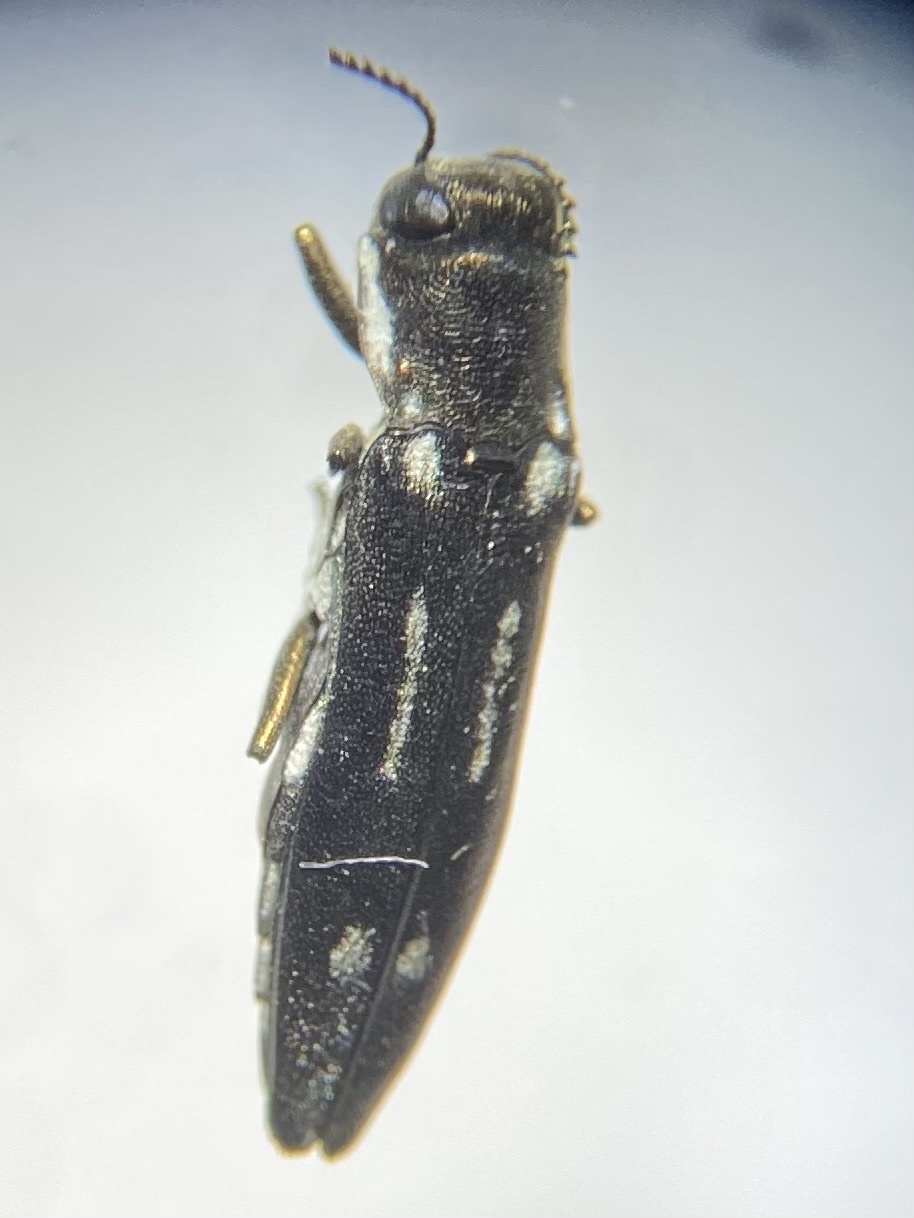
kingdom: Animalia
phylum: Arthropoda
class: Insecta
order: Coleoptera
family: Buprestidae
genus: Agrilus
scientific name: Agrilus obsoletoguttatus
